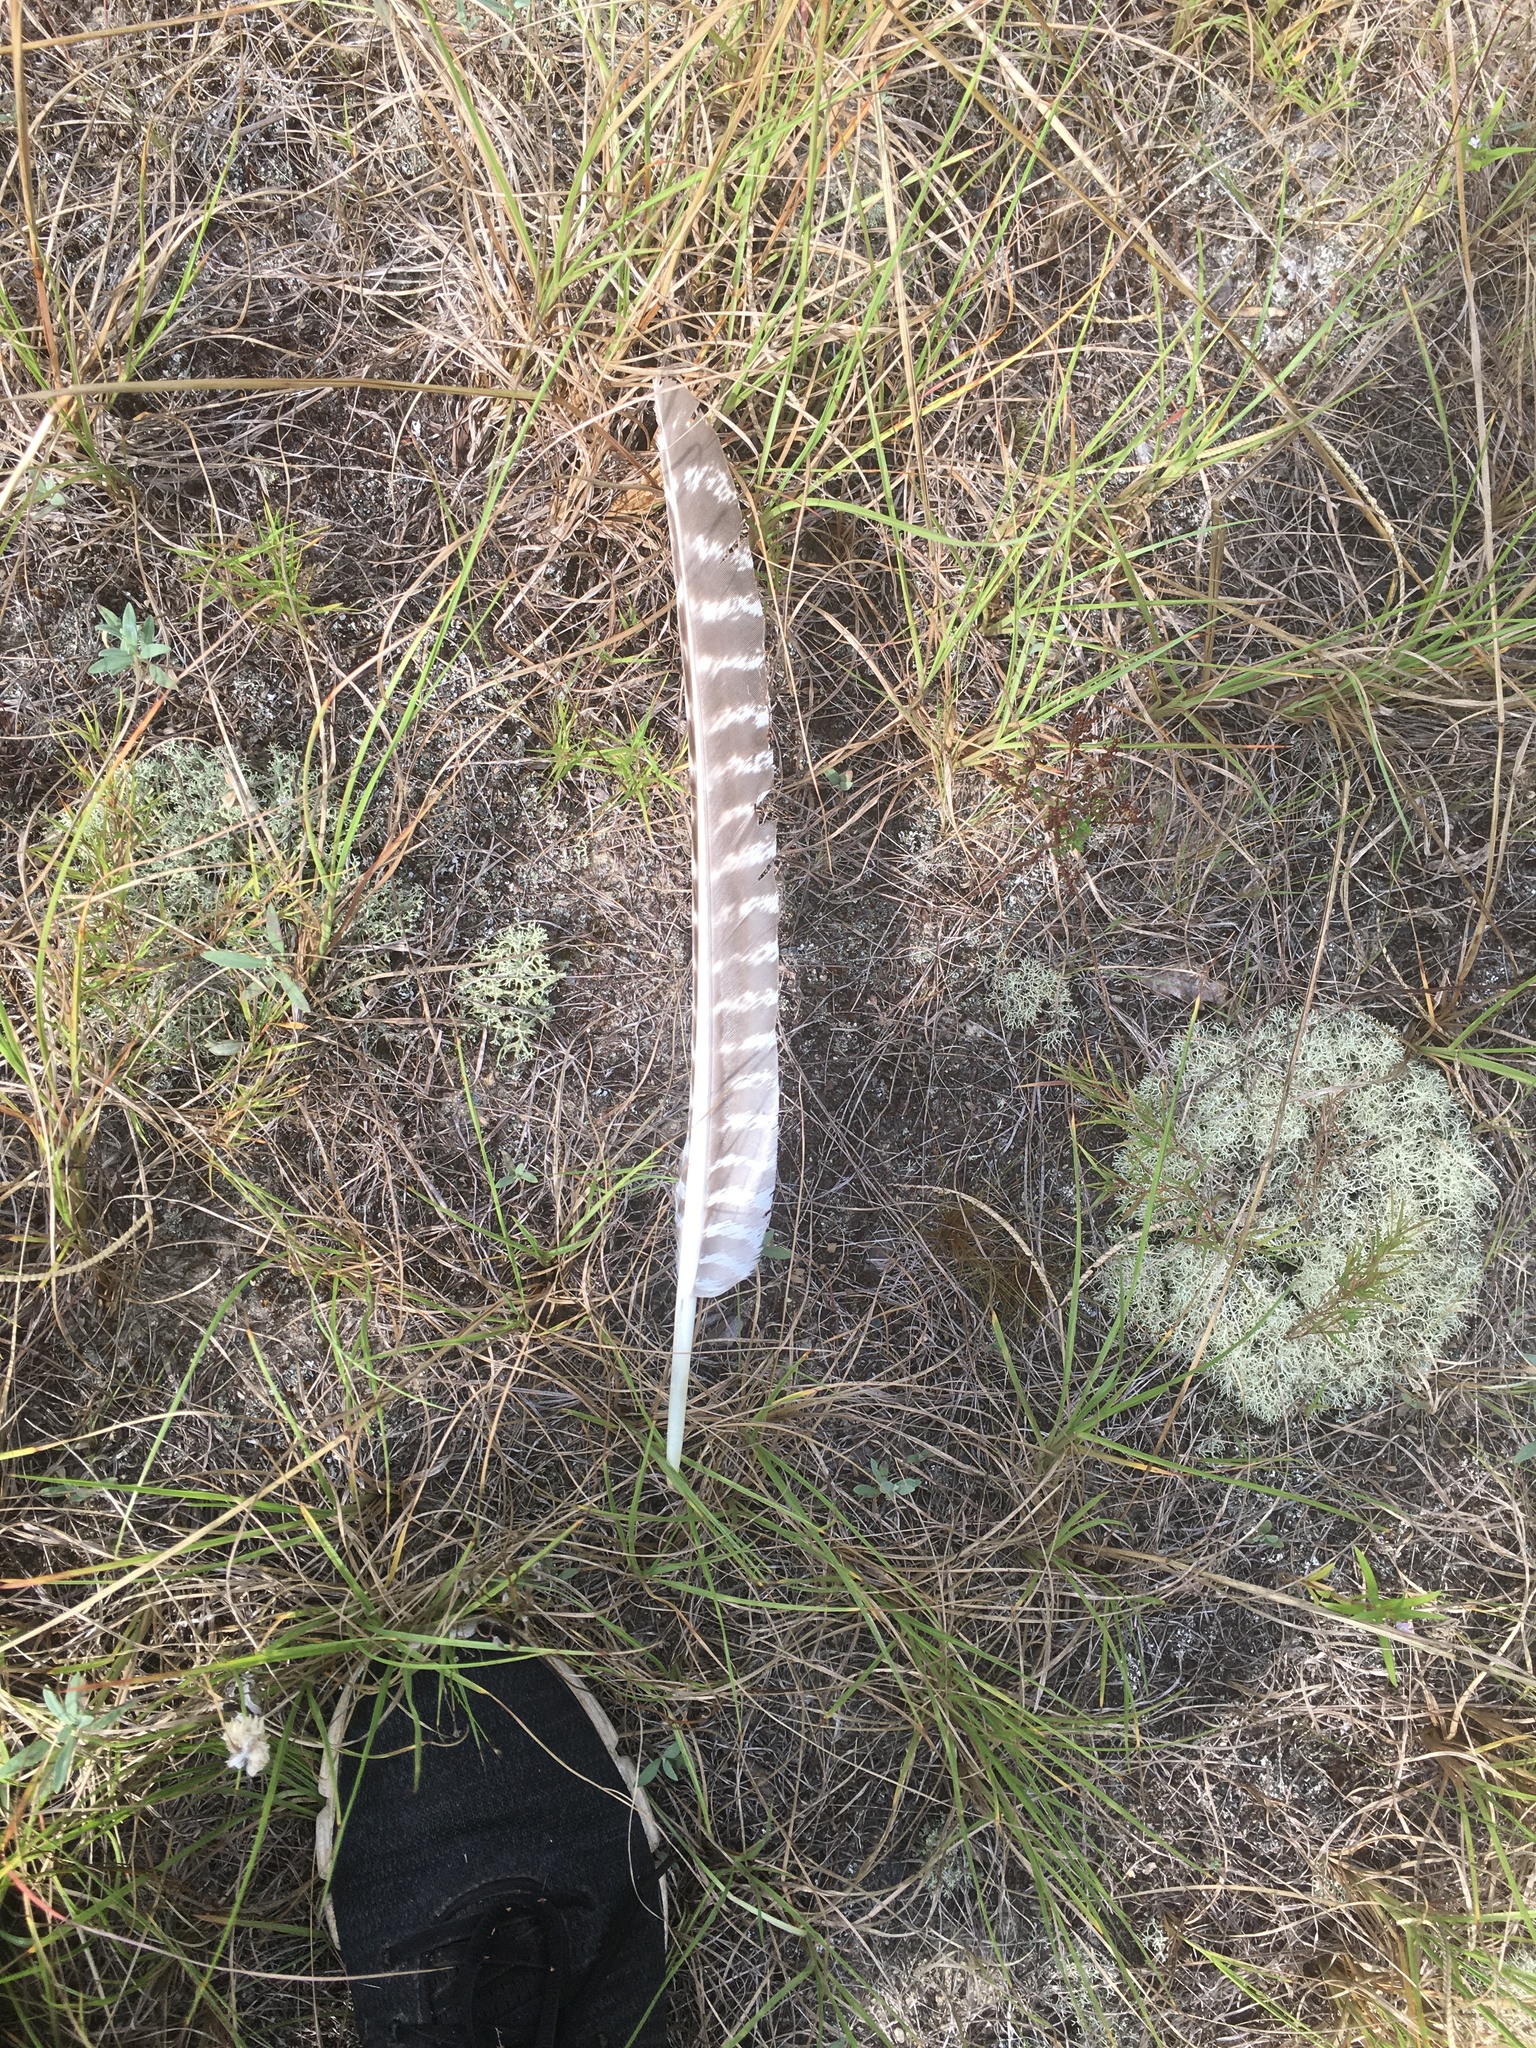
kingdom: Animalia
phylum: Chordata
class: Aves
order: Galliformes
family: Phasianidae
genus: Meleagris
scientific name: Meleagris gallopavo
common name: Wild turkey
